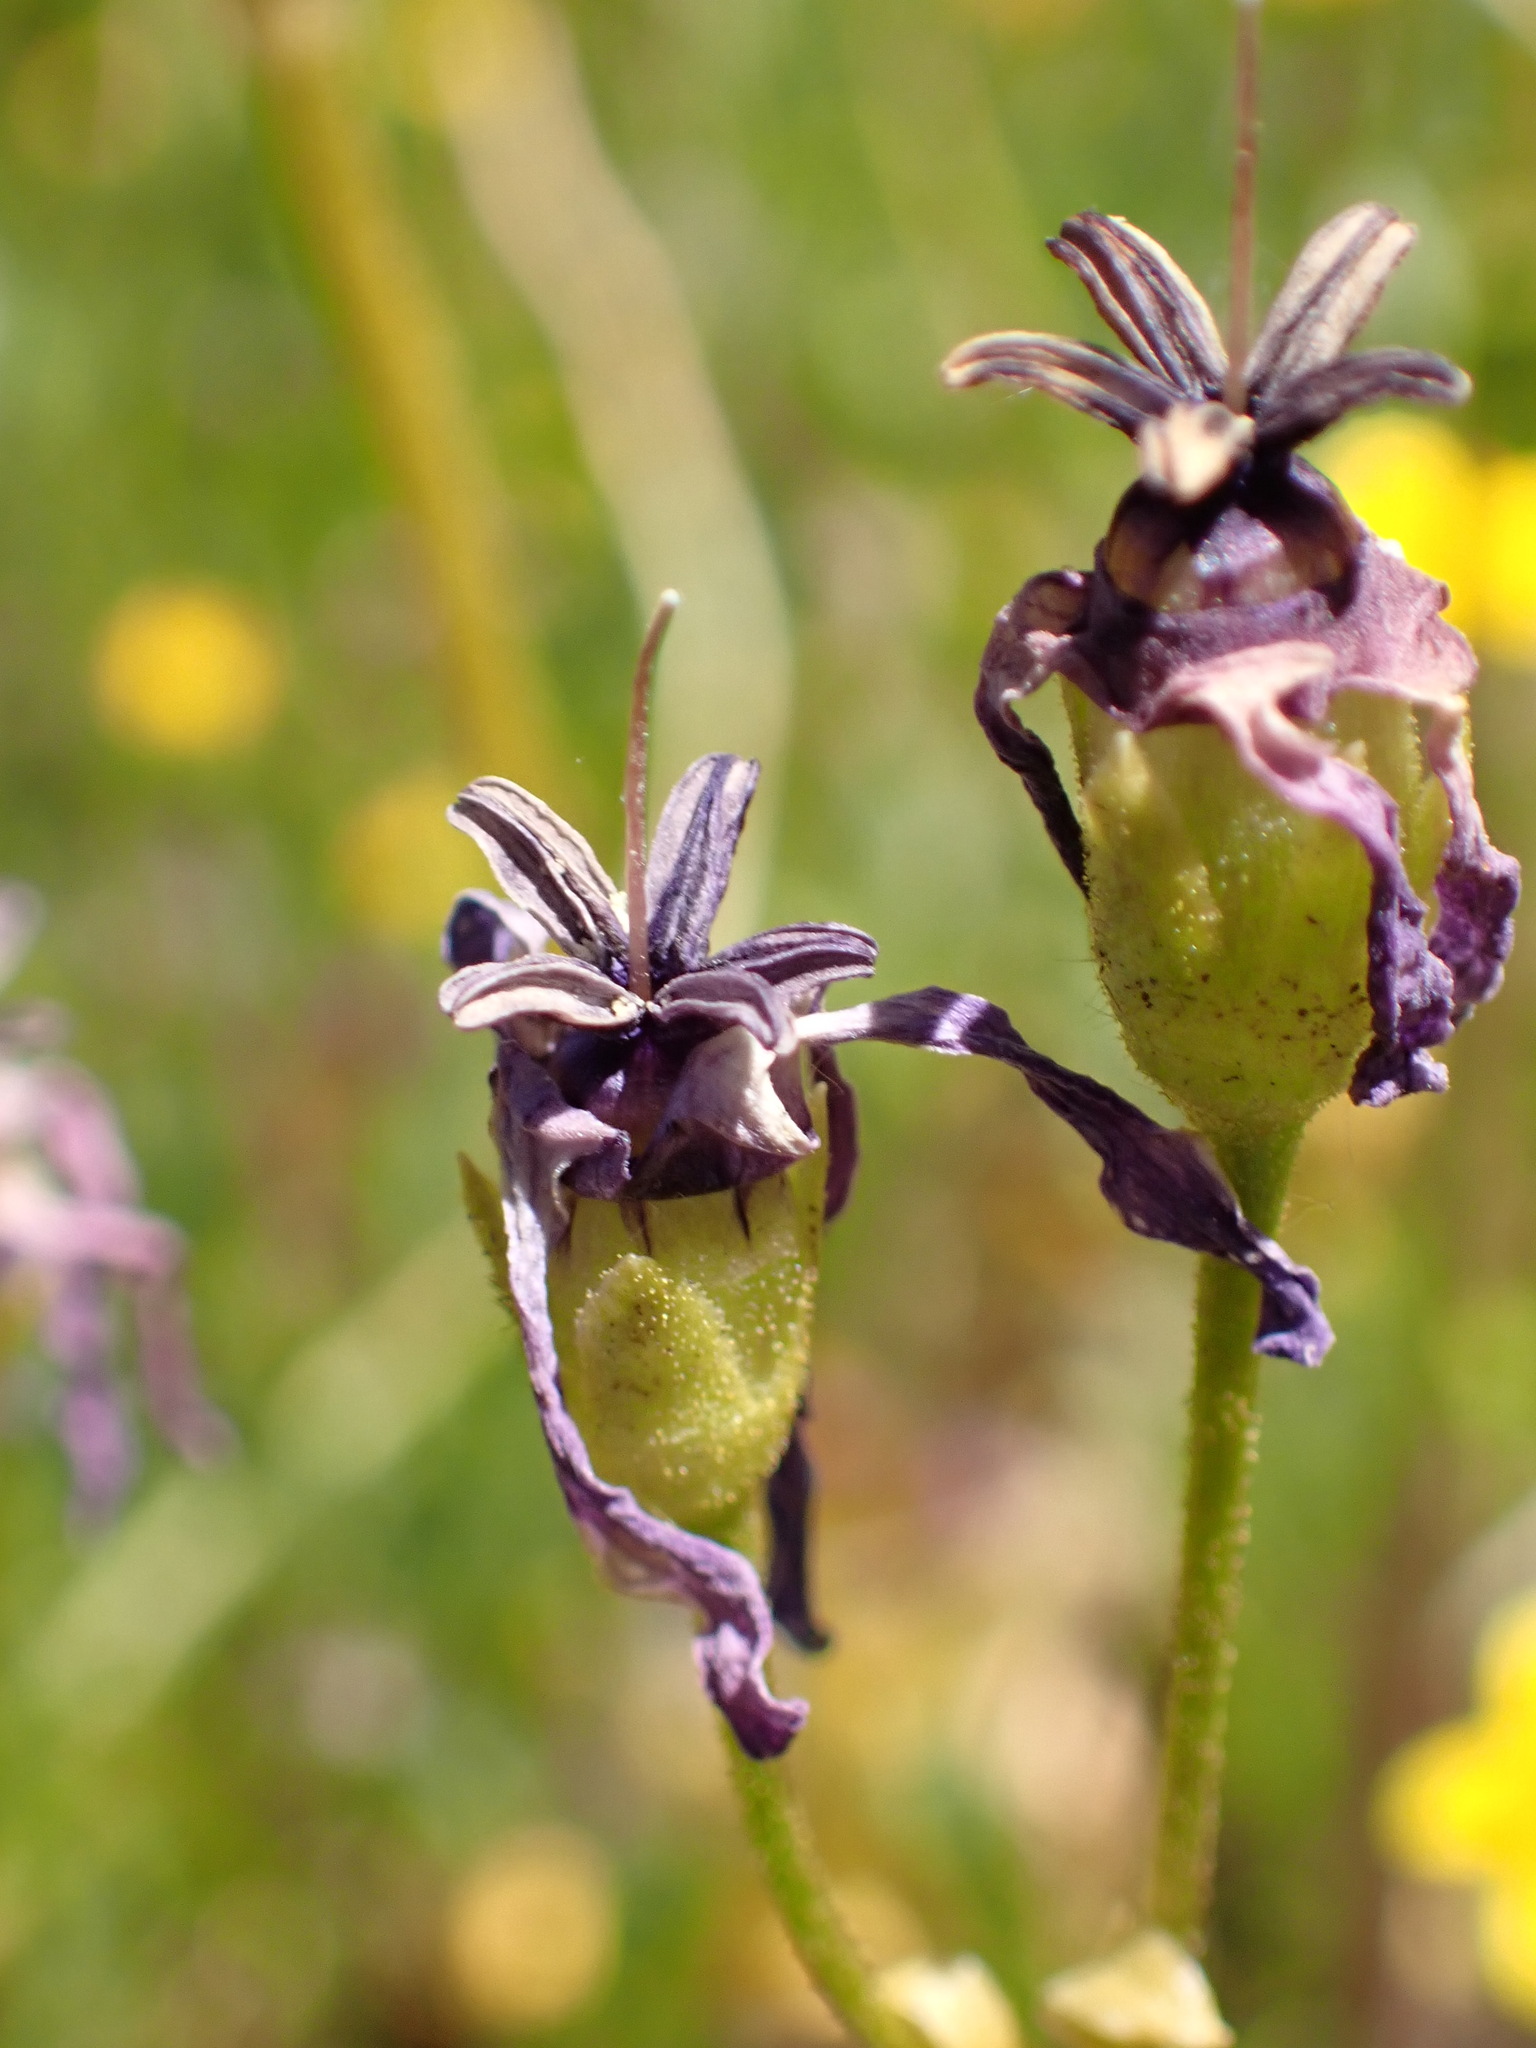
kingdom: Plantae
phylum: Tracheophyta
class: Magnoliopsida
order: Ericales
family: Primulaceae
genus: Dodecatheon
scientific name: Dodecatheon clevelandii
